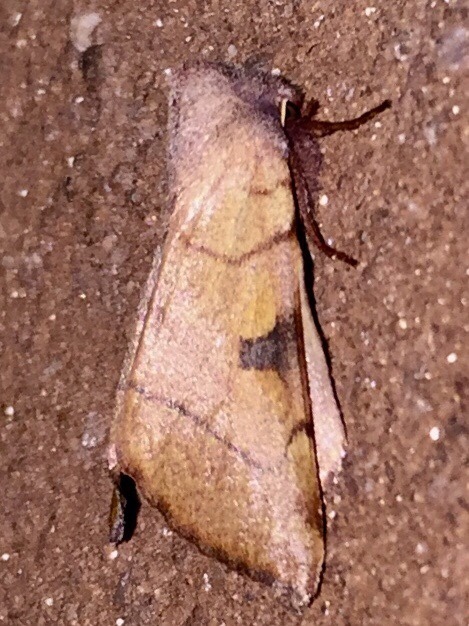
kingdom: Animalia
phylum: Arthropoda
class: Insecta
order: Lepidoptera
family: Noctuidae
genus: Choephora
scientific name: Choephora fungorum
